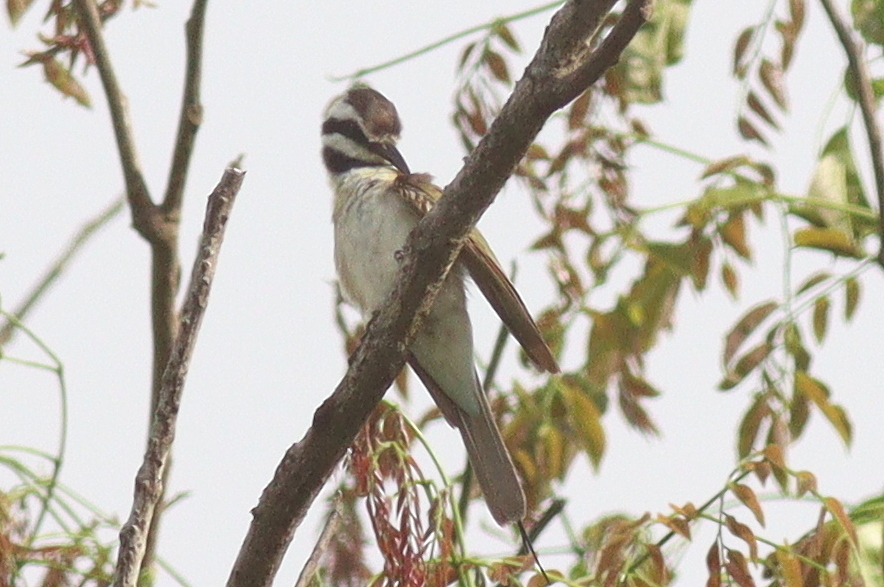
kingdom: Animalia
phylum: Chordata
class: Aves
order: Coraciiformes
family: Meropidae
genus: Merops
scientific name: Merops albicollis
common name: White-throated bee-eater
